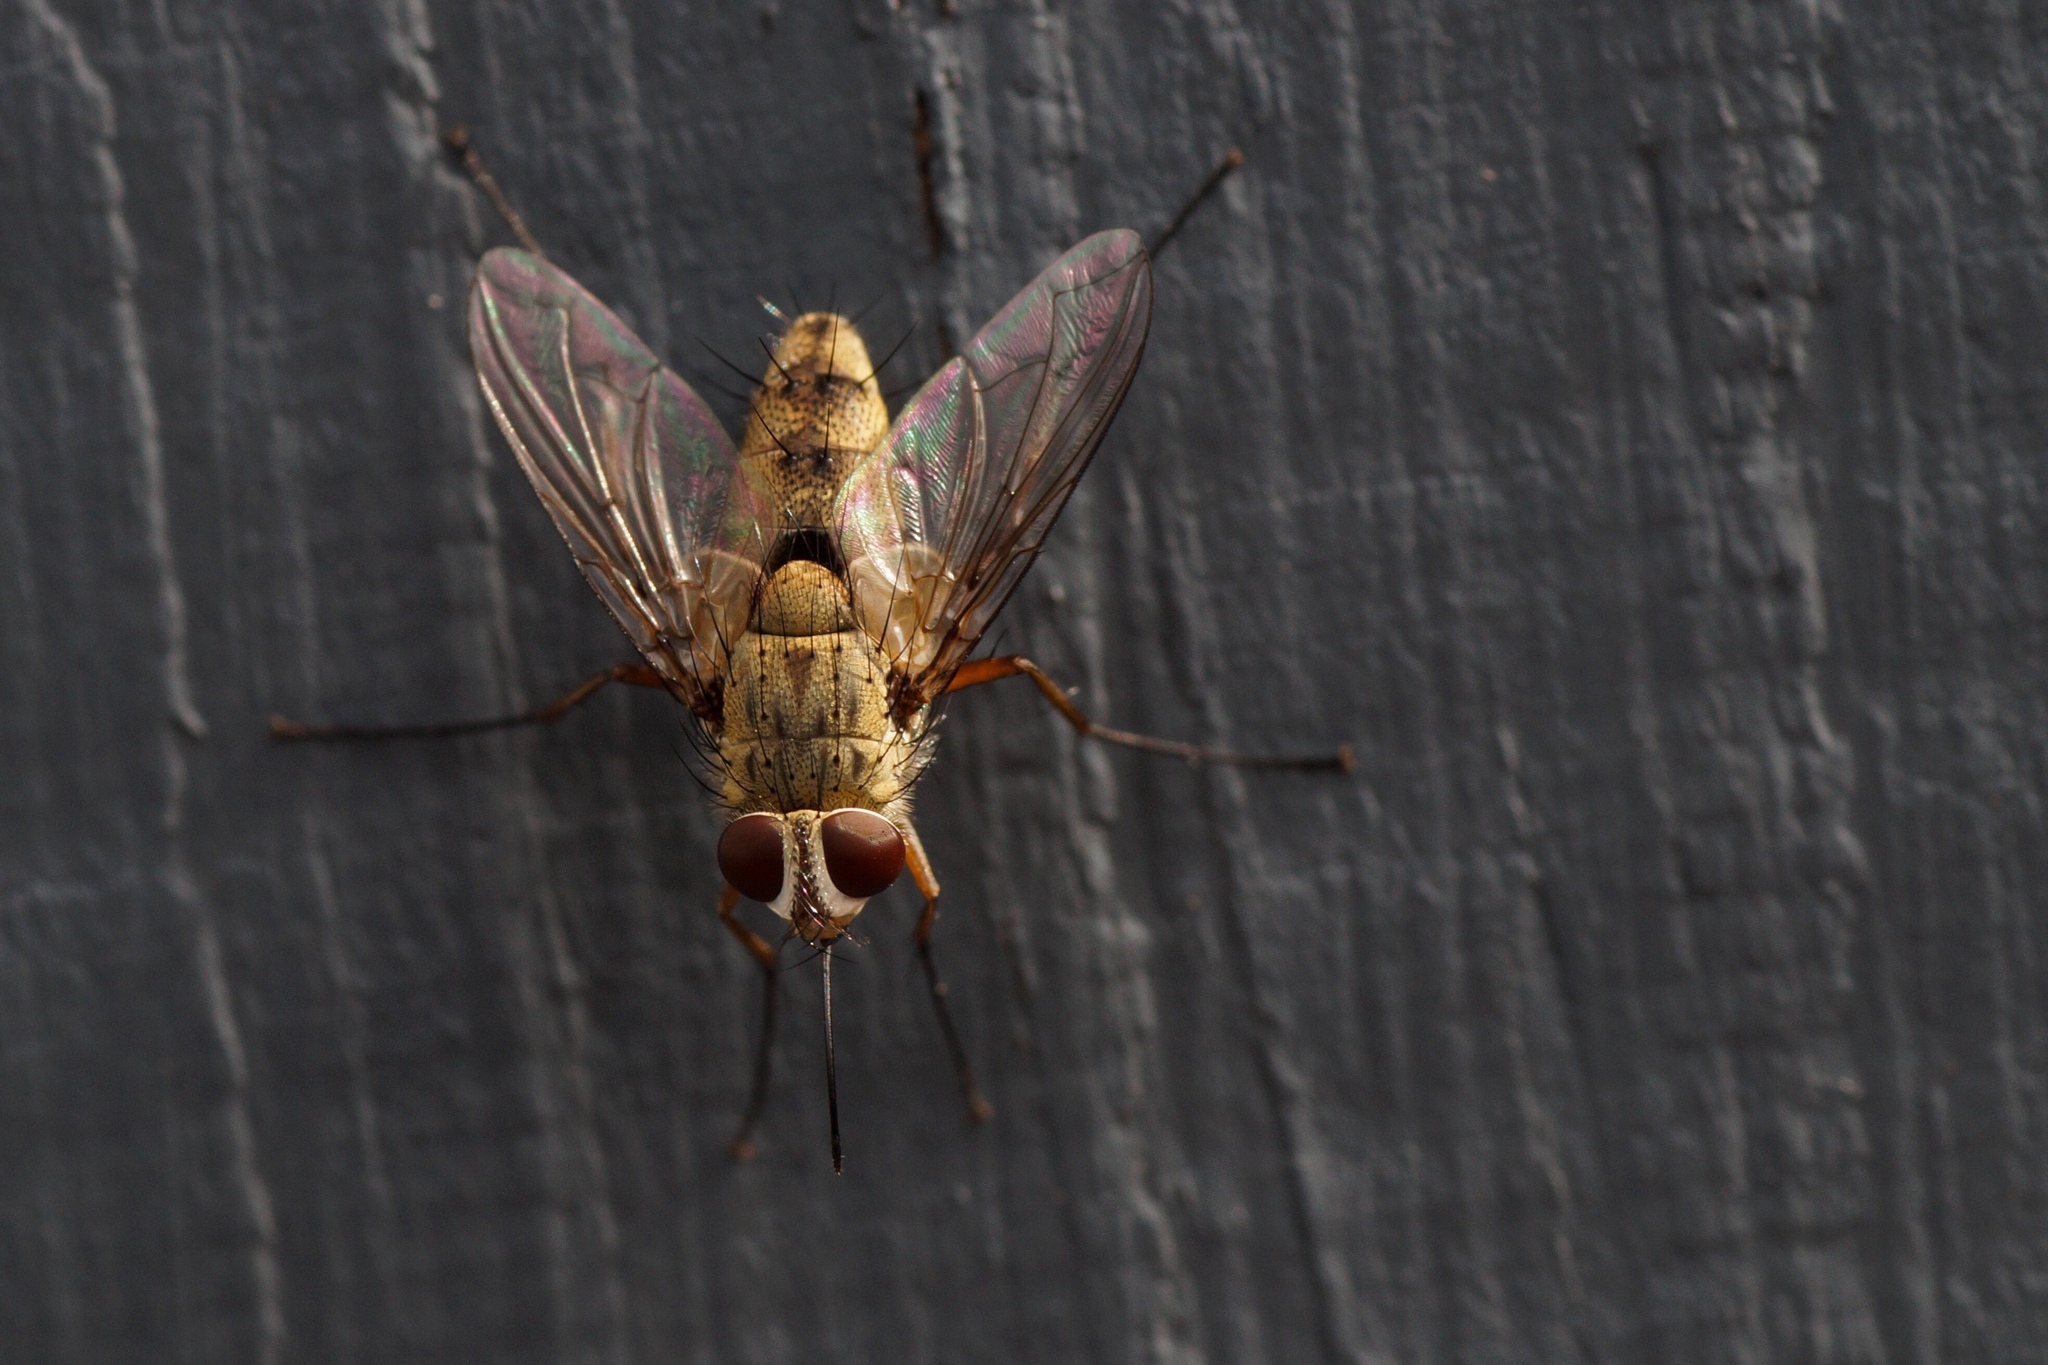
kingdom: Animalia
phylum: Arthropoda
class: Insecta
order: Diptera
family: Tachinidae
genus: Prosena
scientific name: Prosena siberita
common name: Parasitic fly
